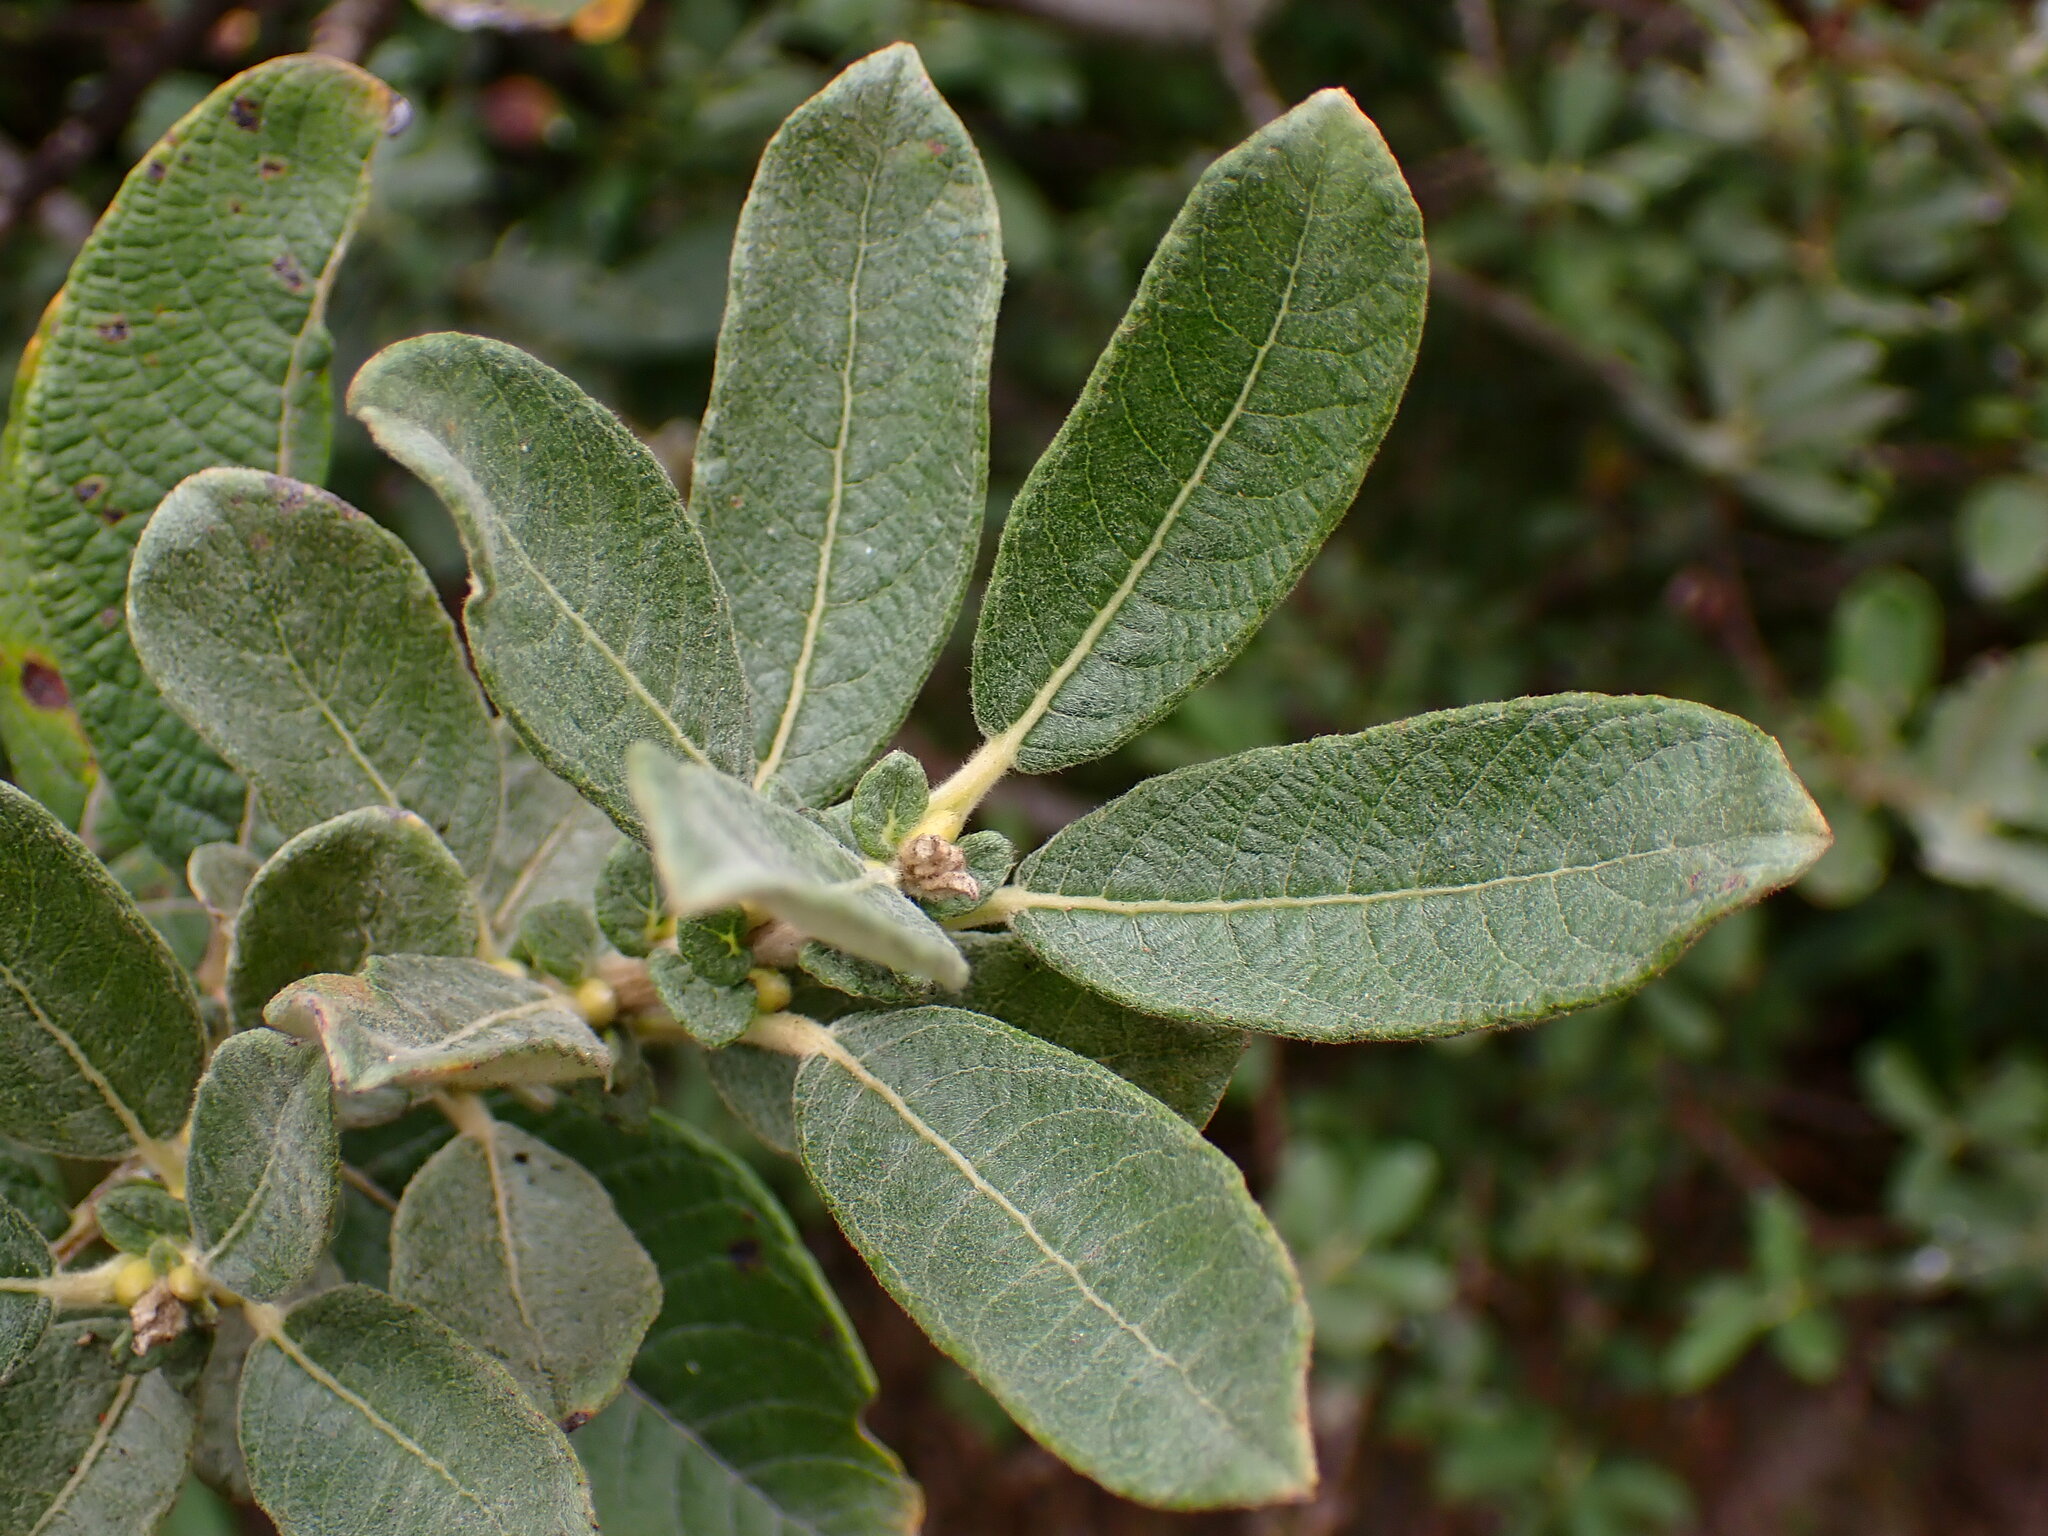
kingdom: Plantae
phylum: Tracheophyta
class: Magnoliopsida
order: Malpighiales
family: Salicaceae
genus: Salix
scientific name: Salix sitchensis
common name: Sitka willow
